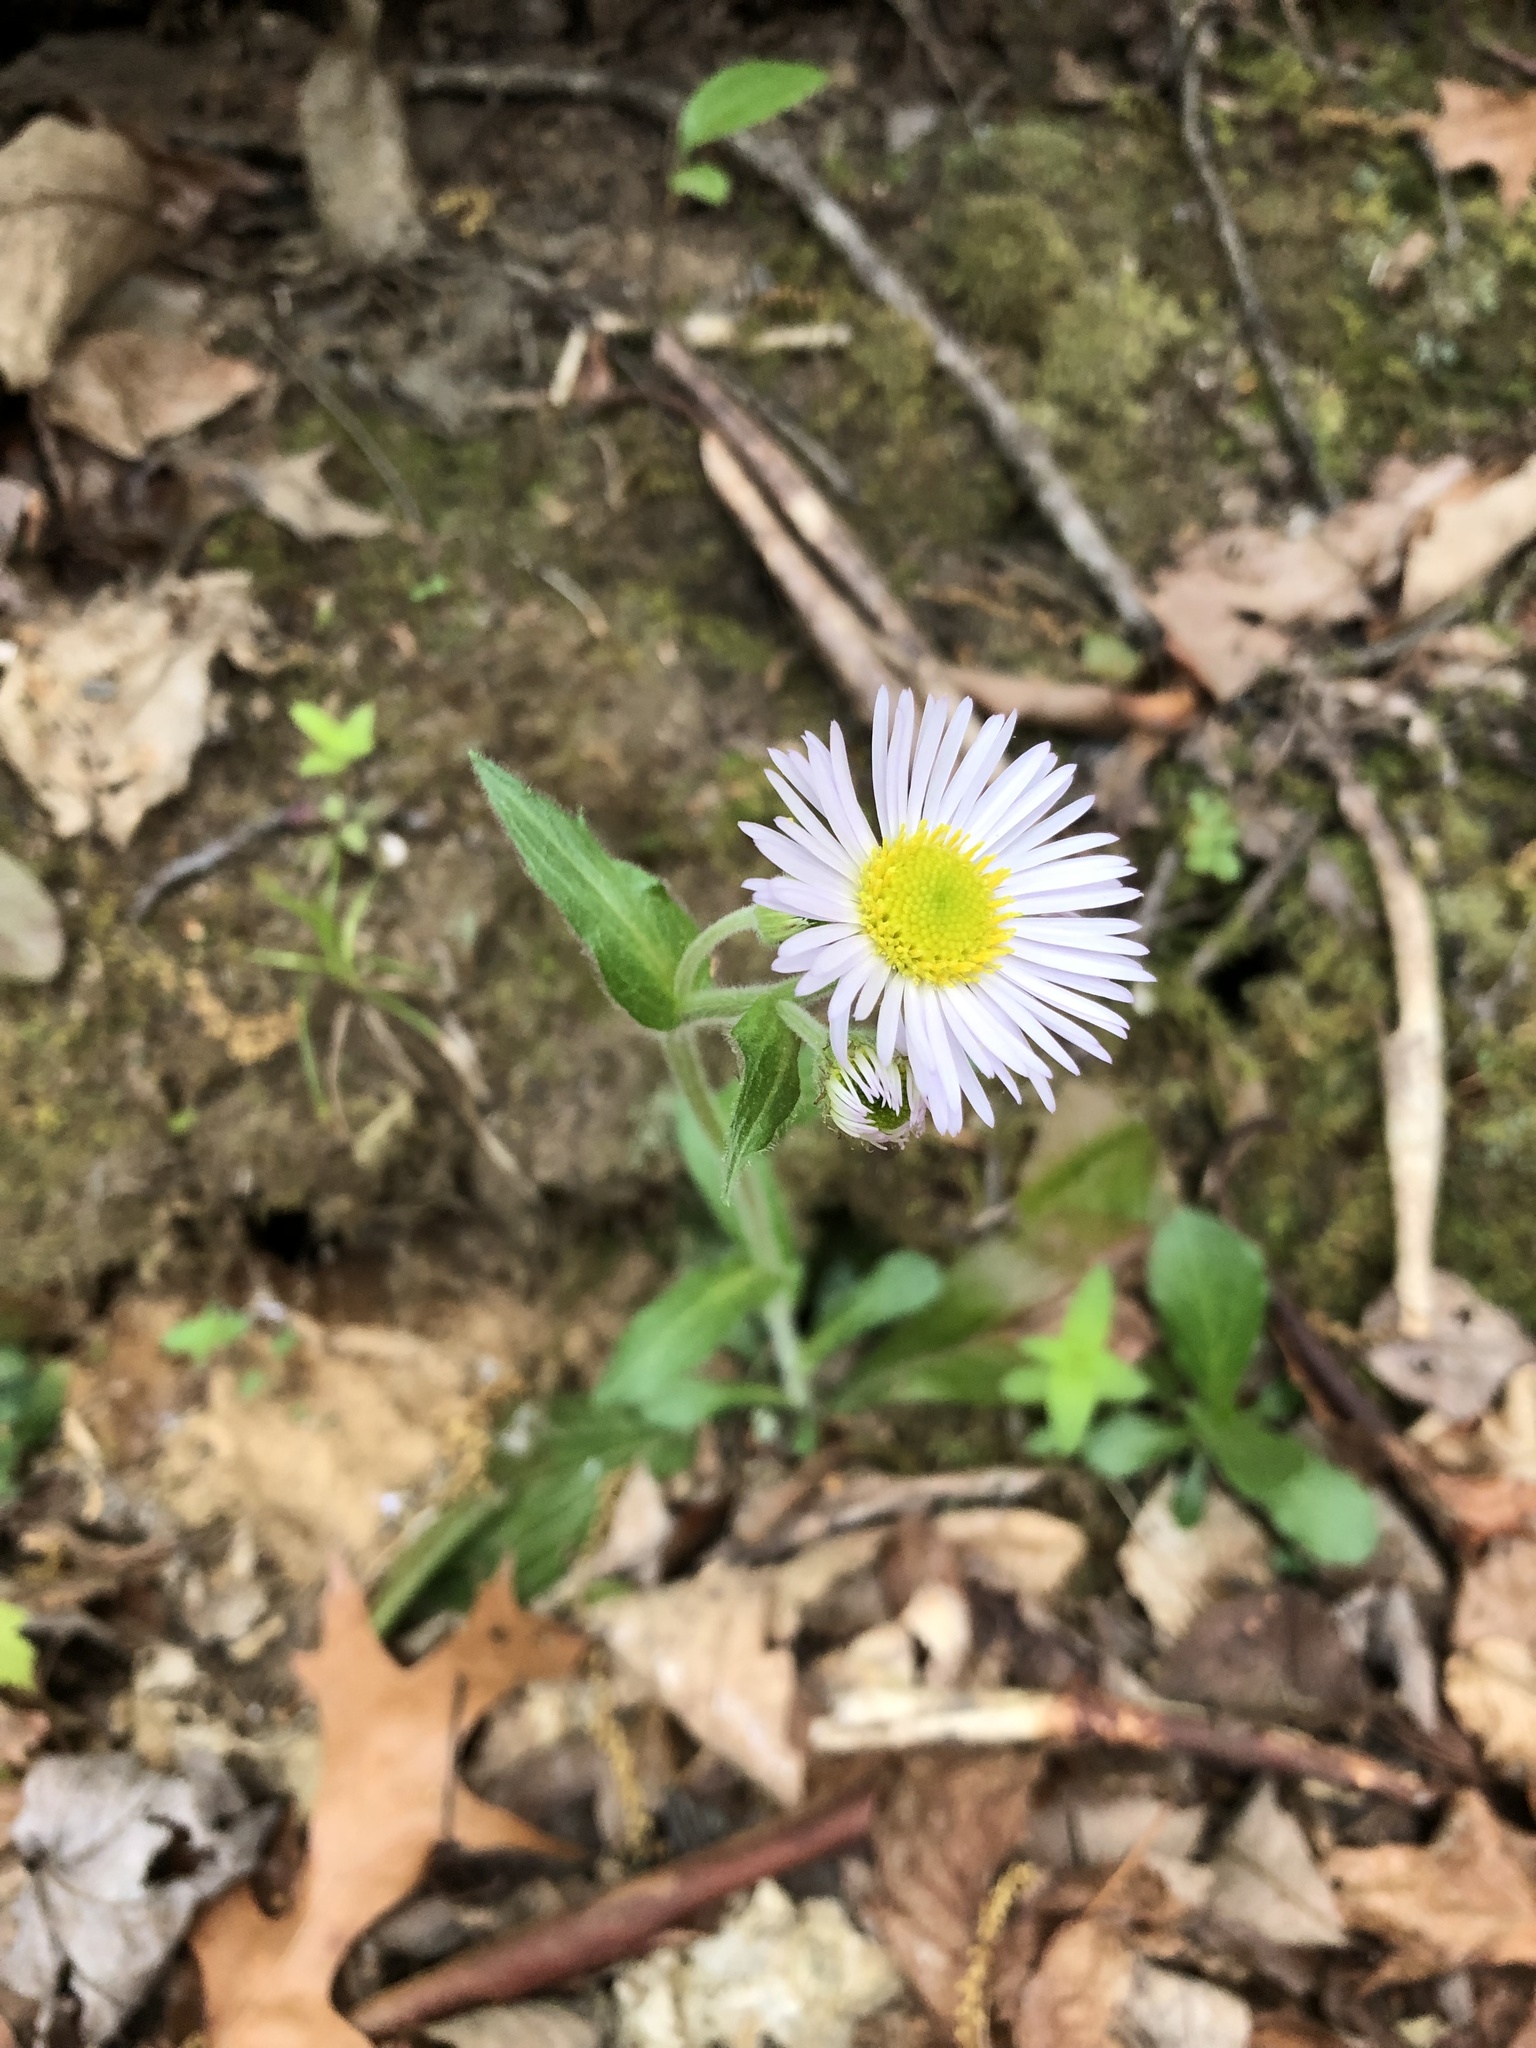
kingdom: Plantae
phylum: Tracheophyta
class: Magnoliopsida
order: Asterales
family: Asteraceae
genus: Erigeron
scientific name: Erigeron pulchellus
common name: Hairy fleabane
